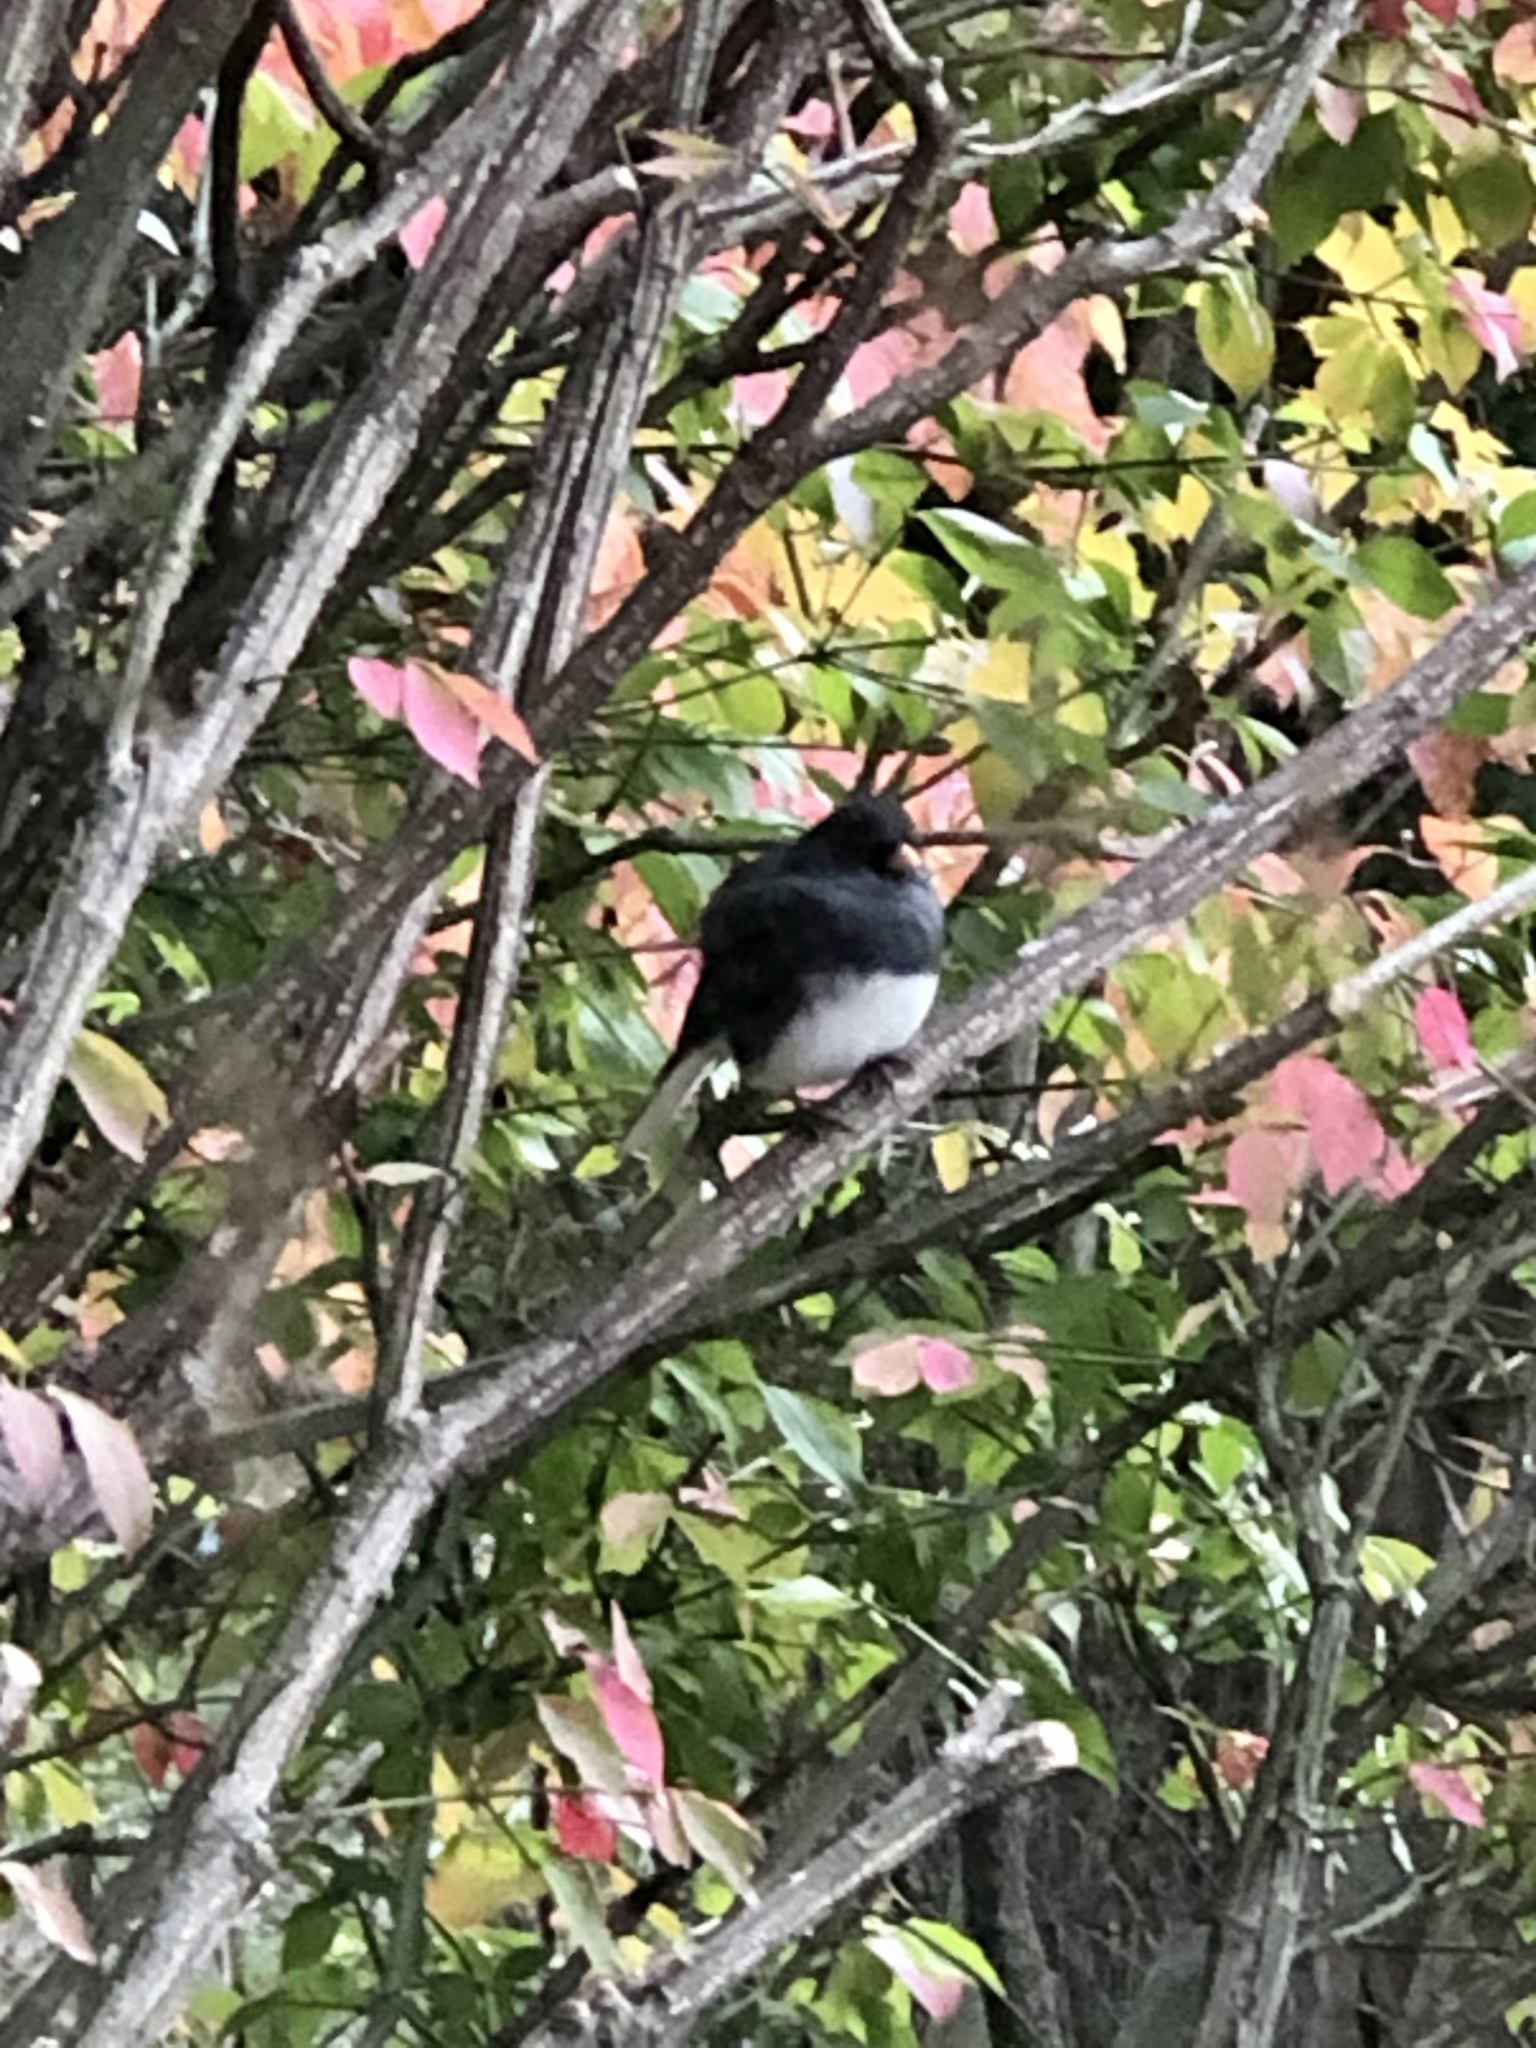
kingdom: Animalia
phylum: Chordata
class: Aves
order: Passeriformes
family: Passerellidae
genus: Junco
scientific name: Junco hyemalis
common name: Dark-eyed junco
